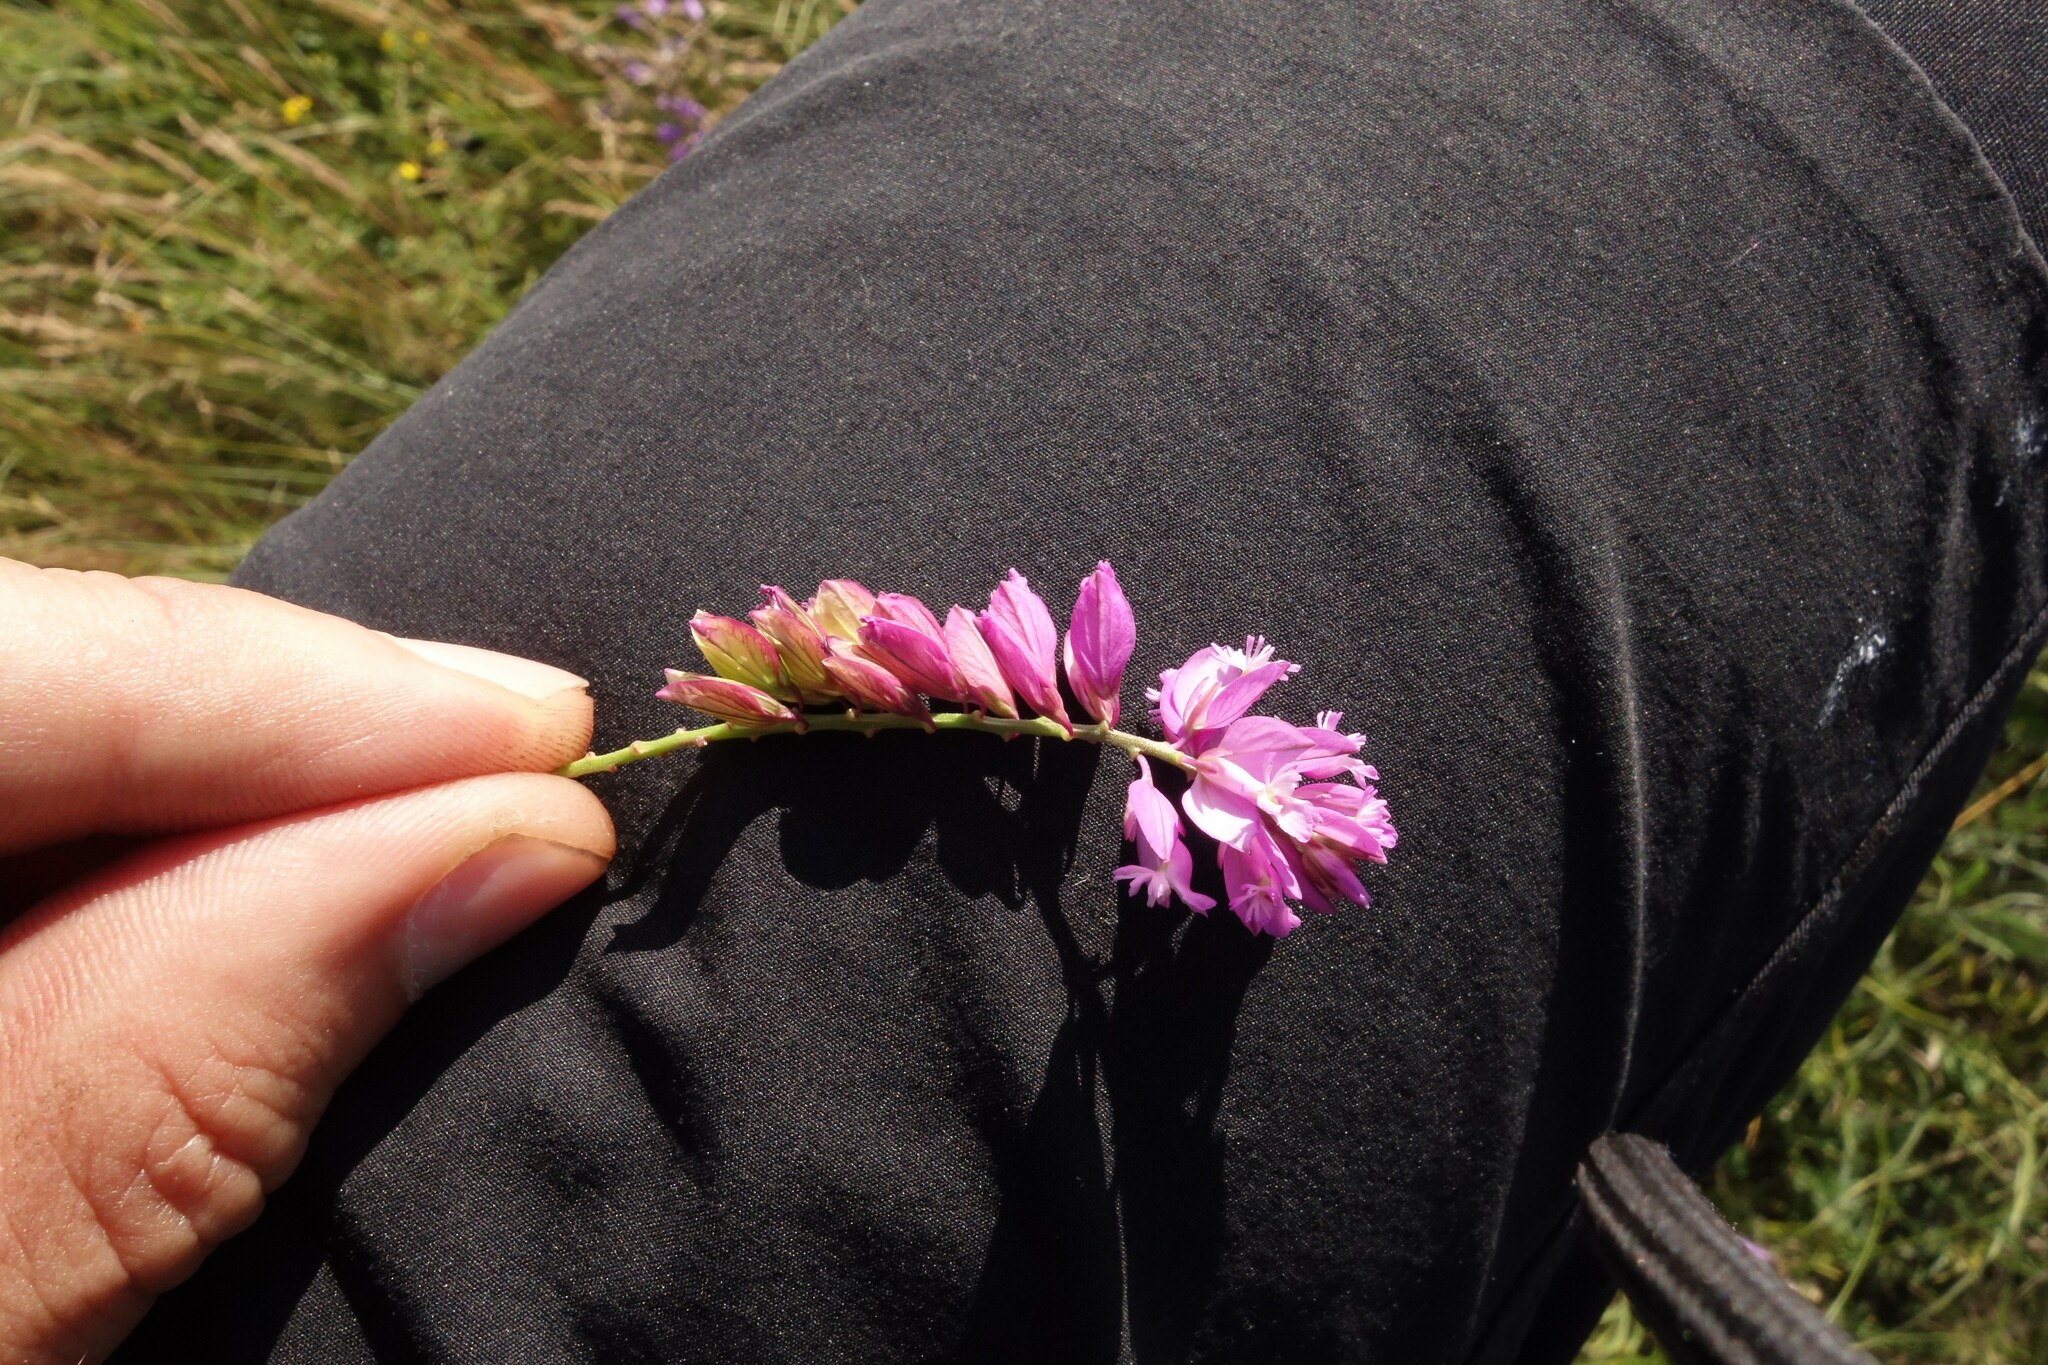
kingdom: Plantae
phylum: Tracheophyta
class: Magnoliopsida
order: Fabales
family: Polygalaceae
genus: Polygala
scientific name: Polygala nicaeensis
